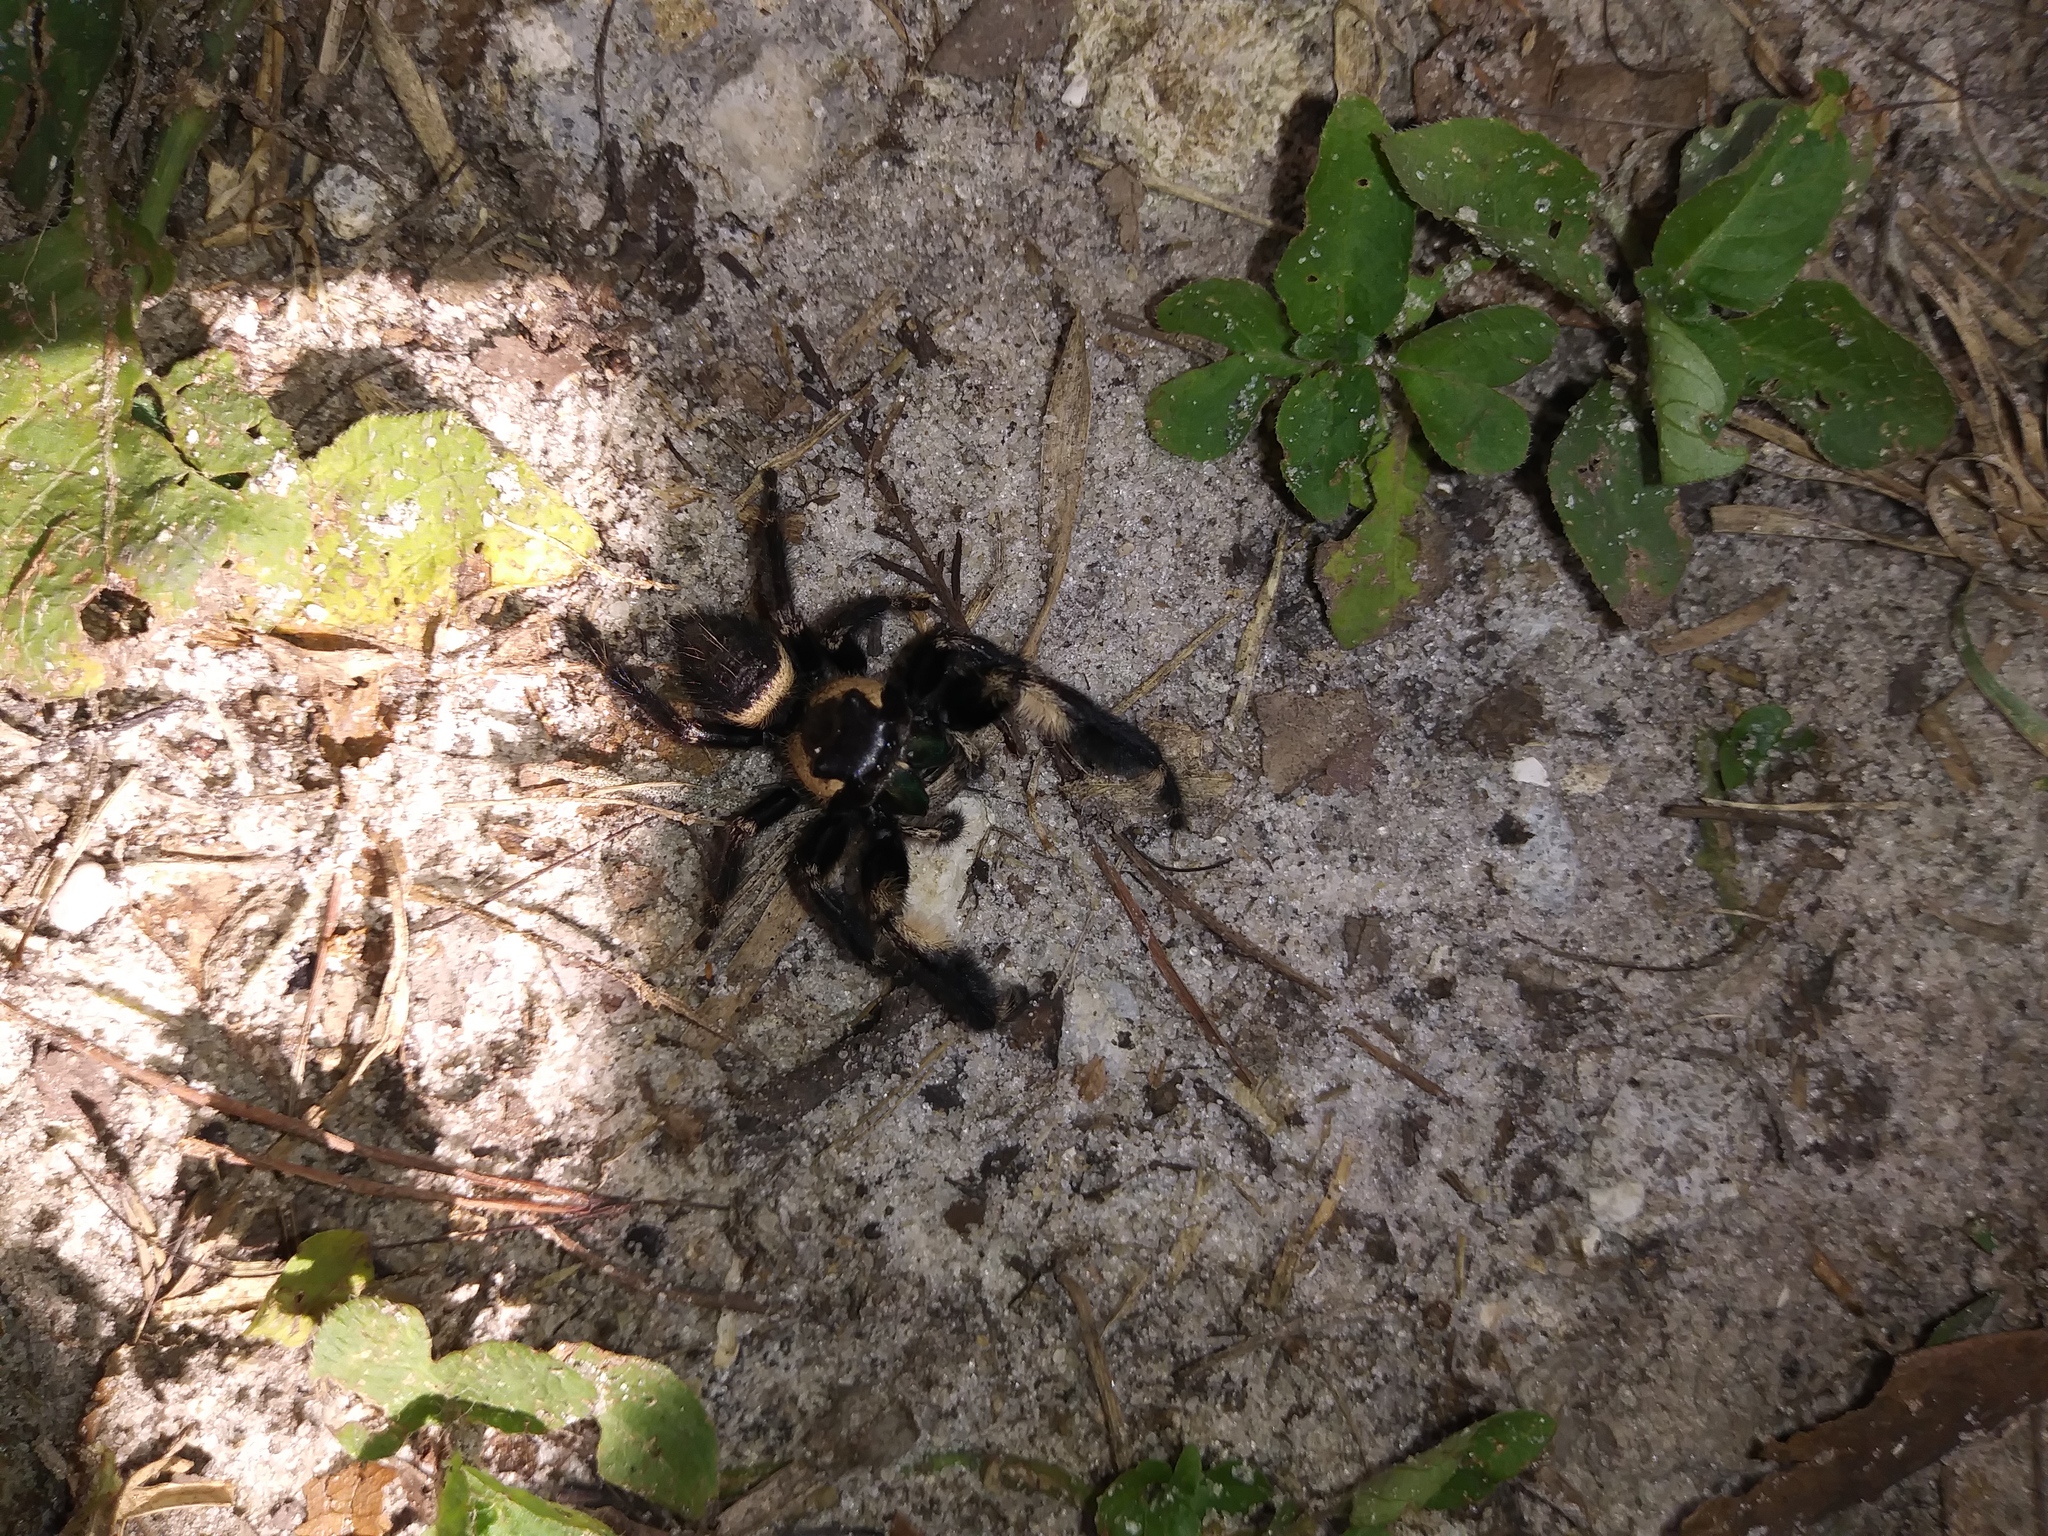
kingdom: Animalia
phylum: Arthropoda
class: Arachnida
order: Araneae
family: Salticidae
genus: Phidippus
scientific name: Phidippus otiosus
